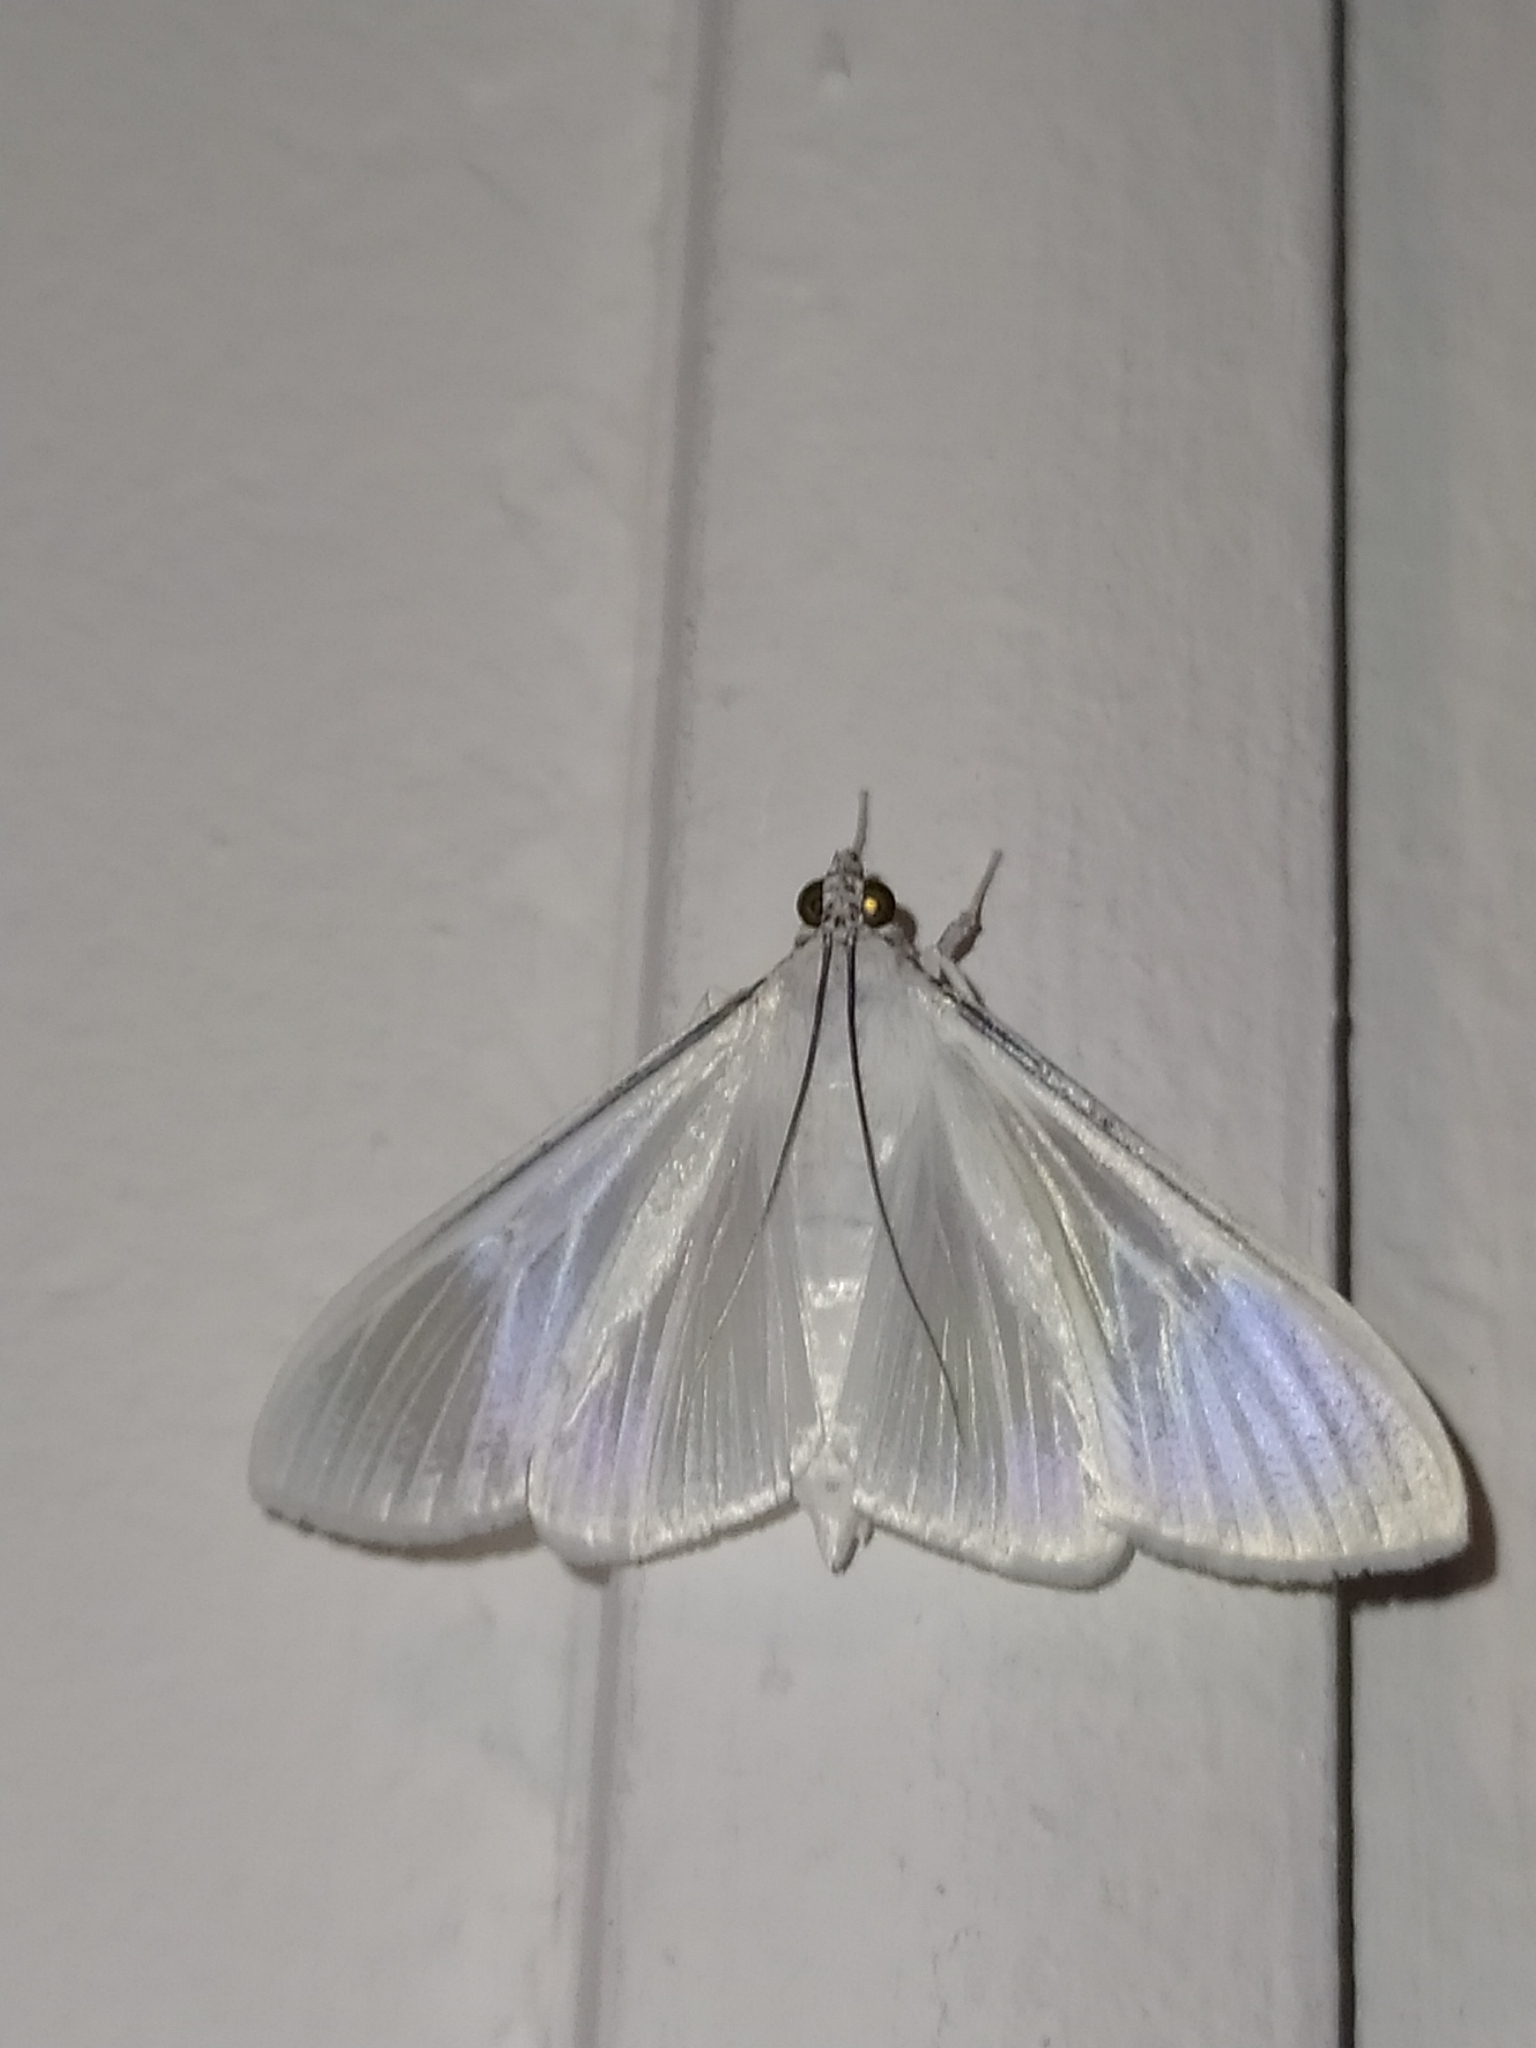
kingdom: Animalia
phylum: Arthropoda
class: Insecta
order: Lepidoptera
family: Crambidae
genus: Palpita
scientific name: Palpita flegia
